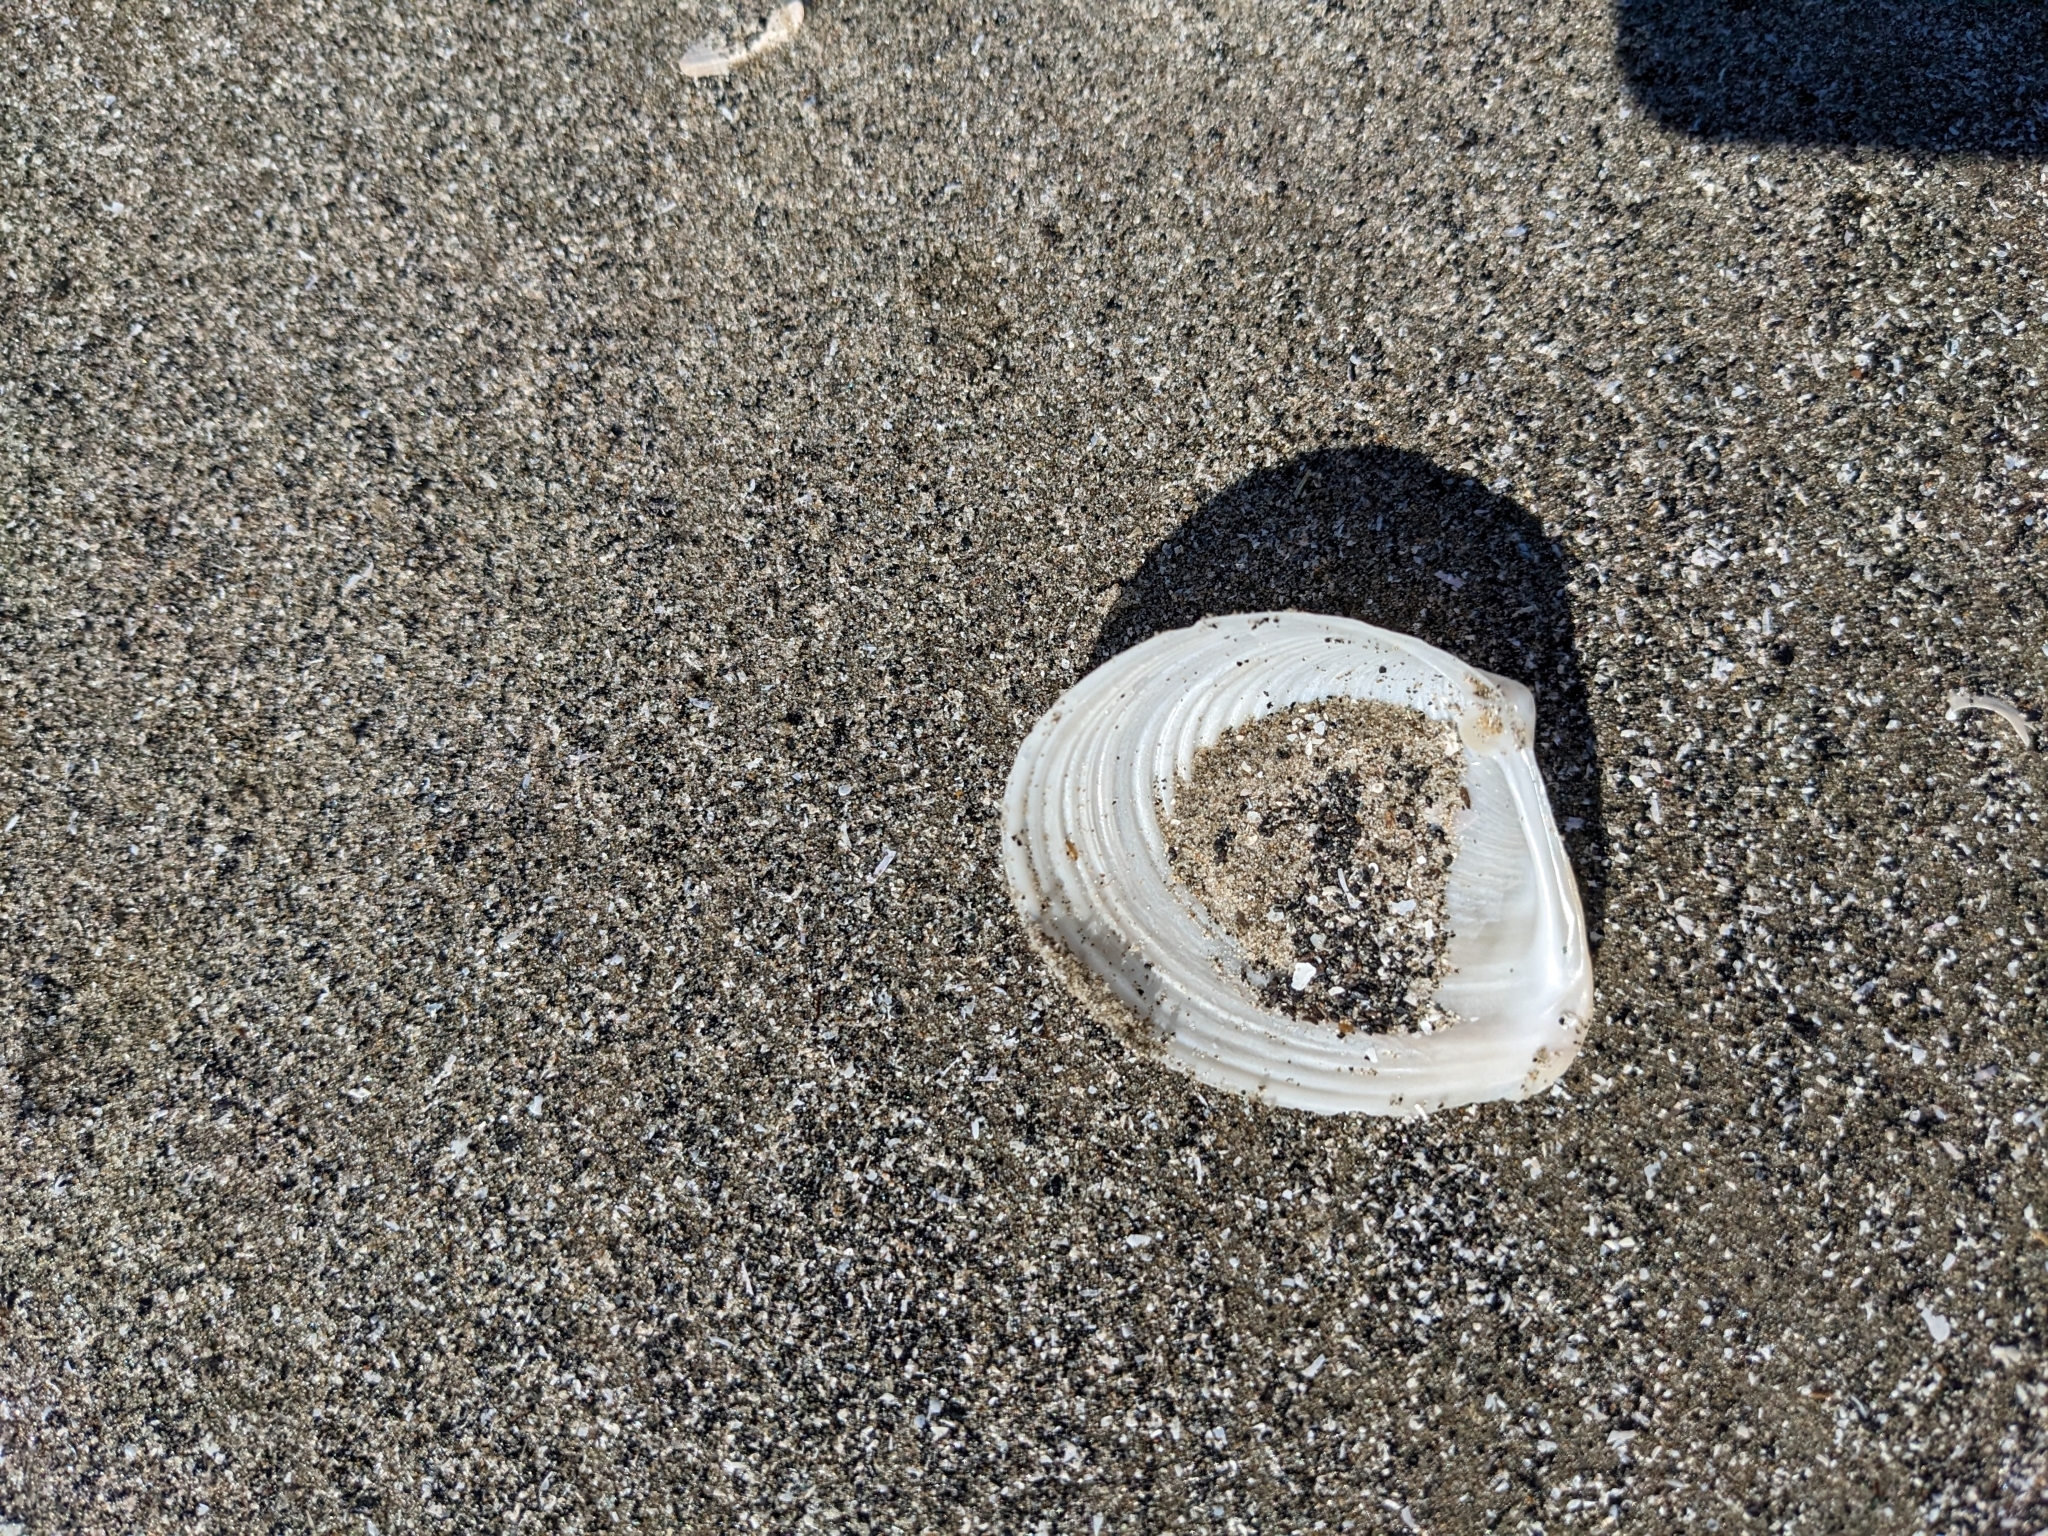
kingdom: Animalia
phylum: Mollusca
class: Bivalvia
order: Venerida
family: Anatinellidae
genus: Raeta
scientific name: Raeta plicatella
